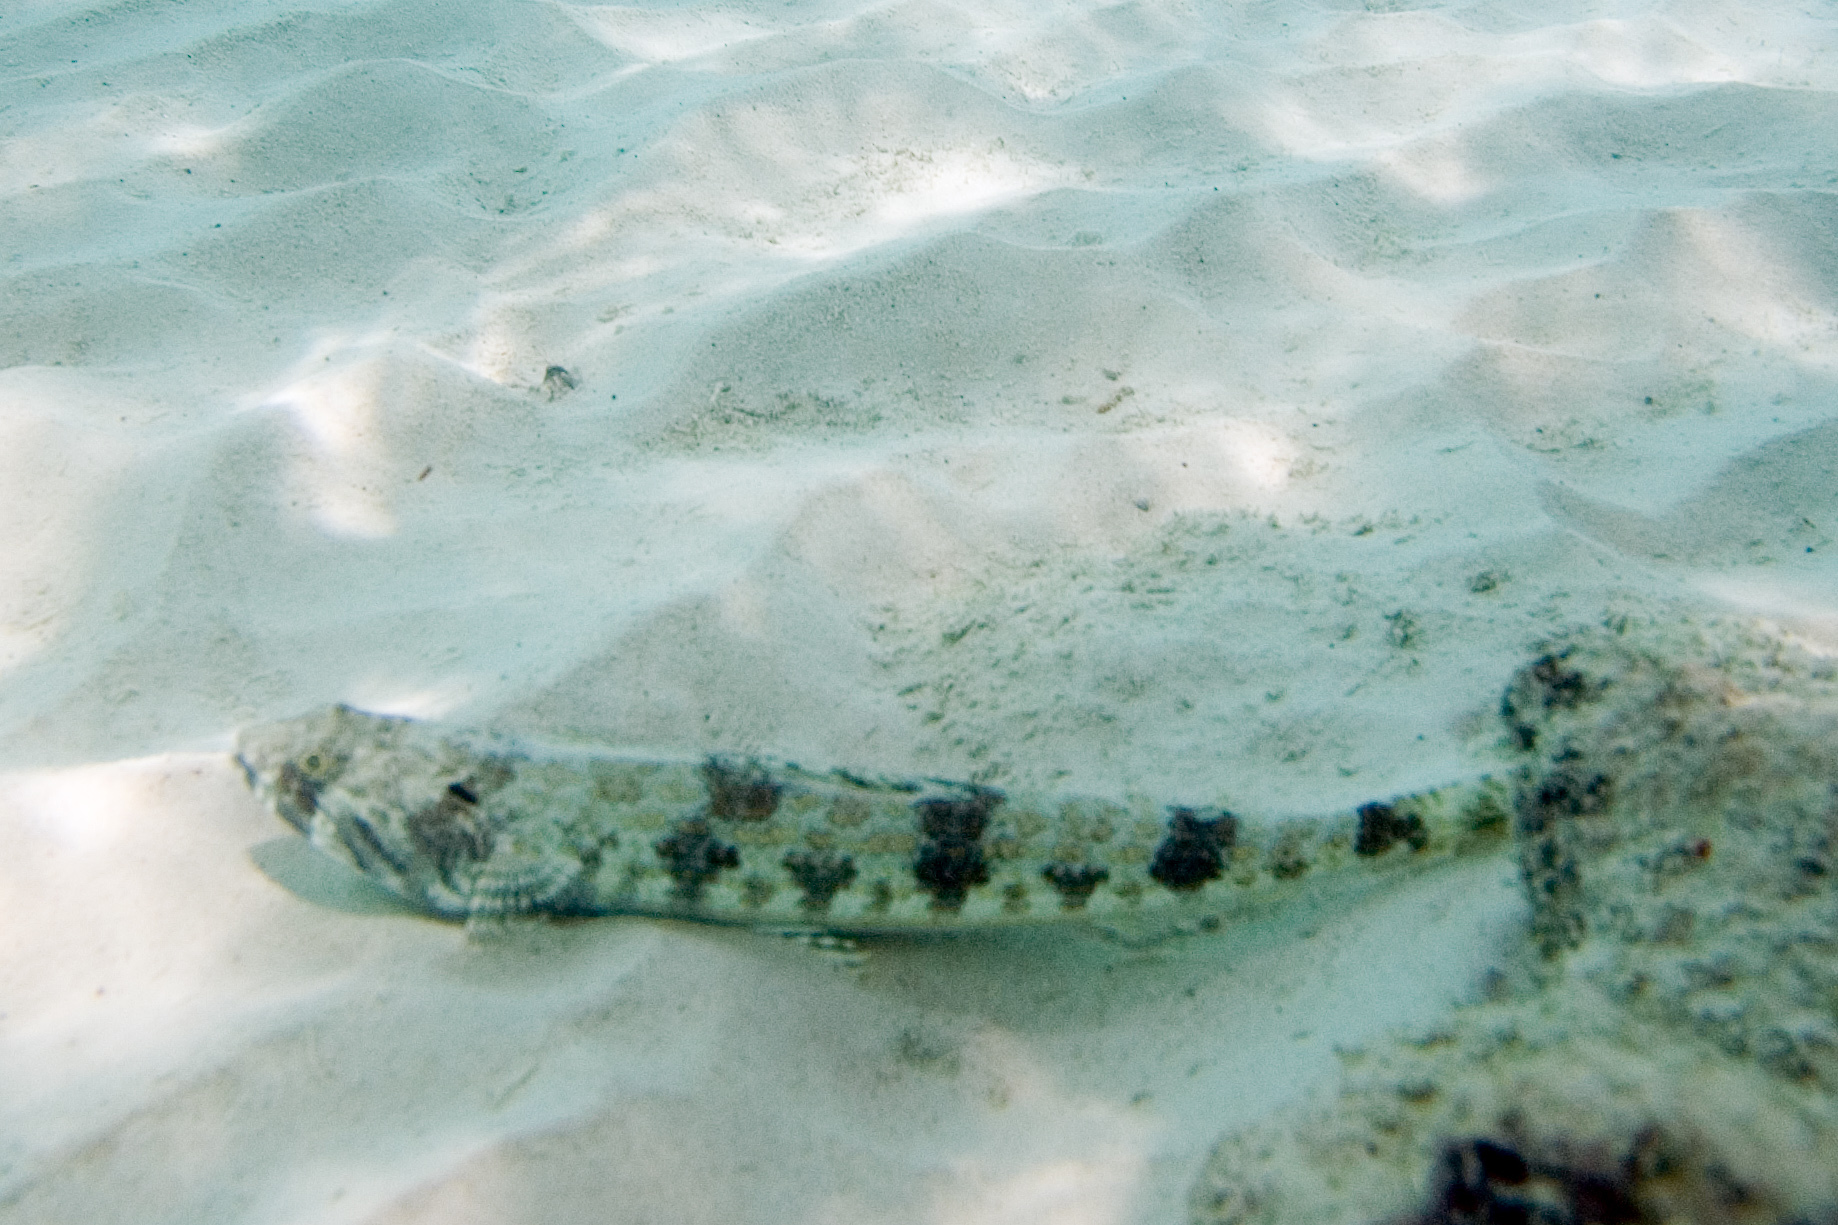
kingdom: Animalia
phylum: Chordata
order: Aulopiformes
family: Synodontidae
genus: Synodus
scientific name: Synodus intermedius
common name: Sand diver
